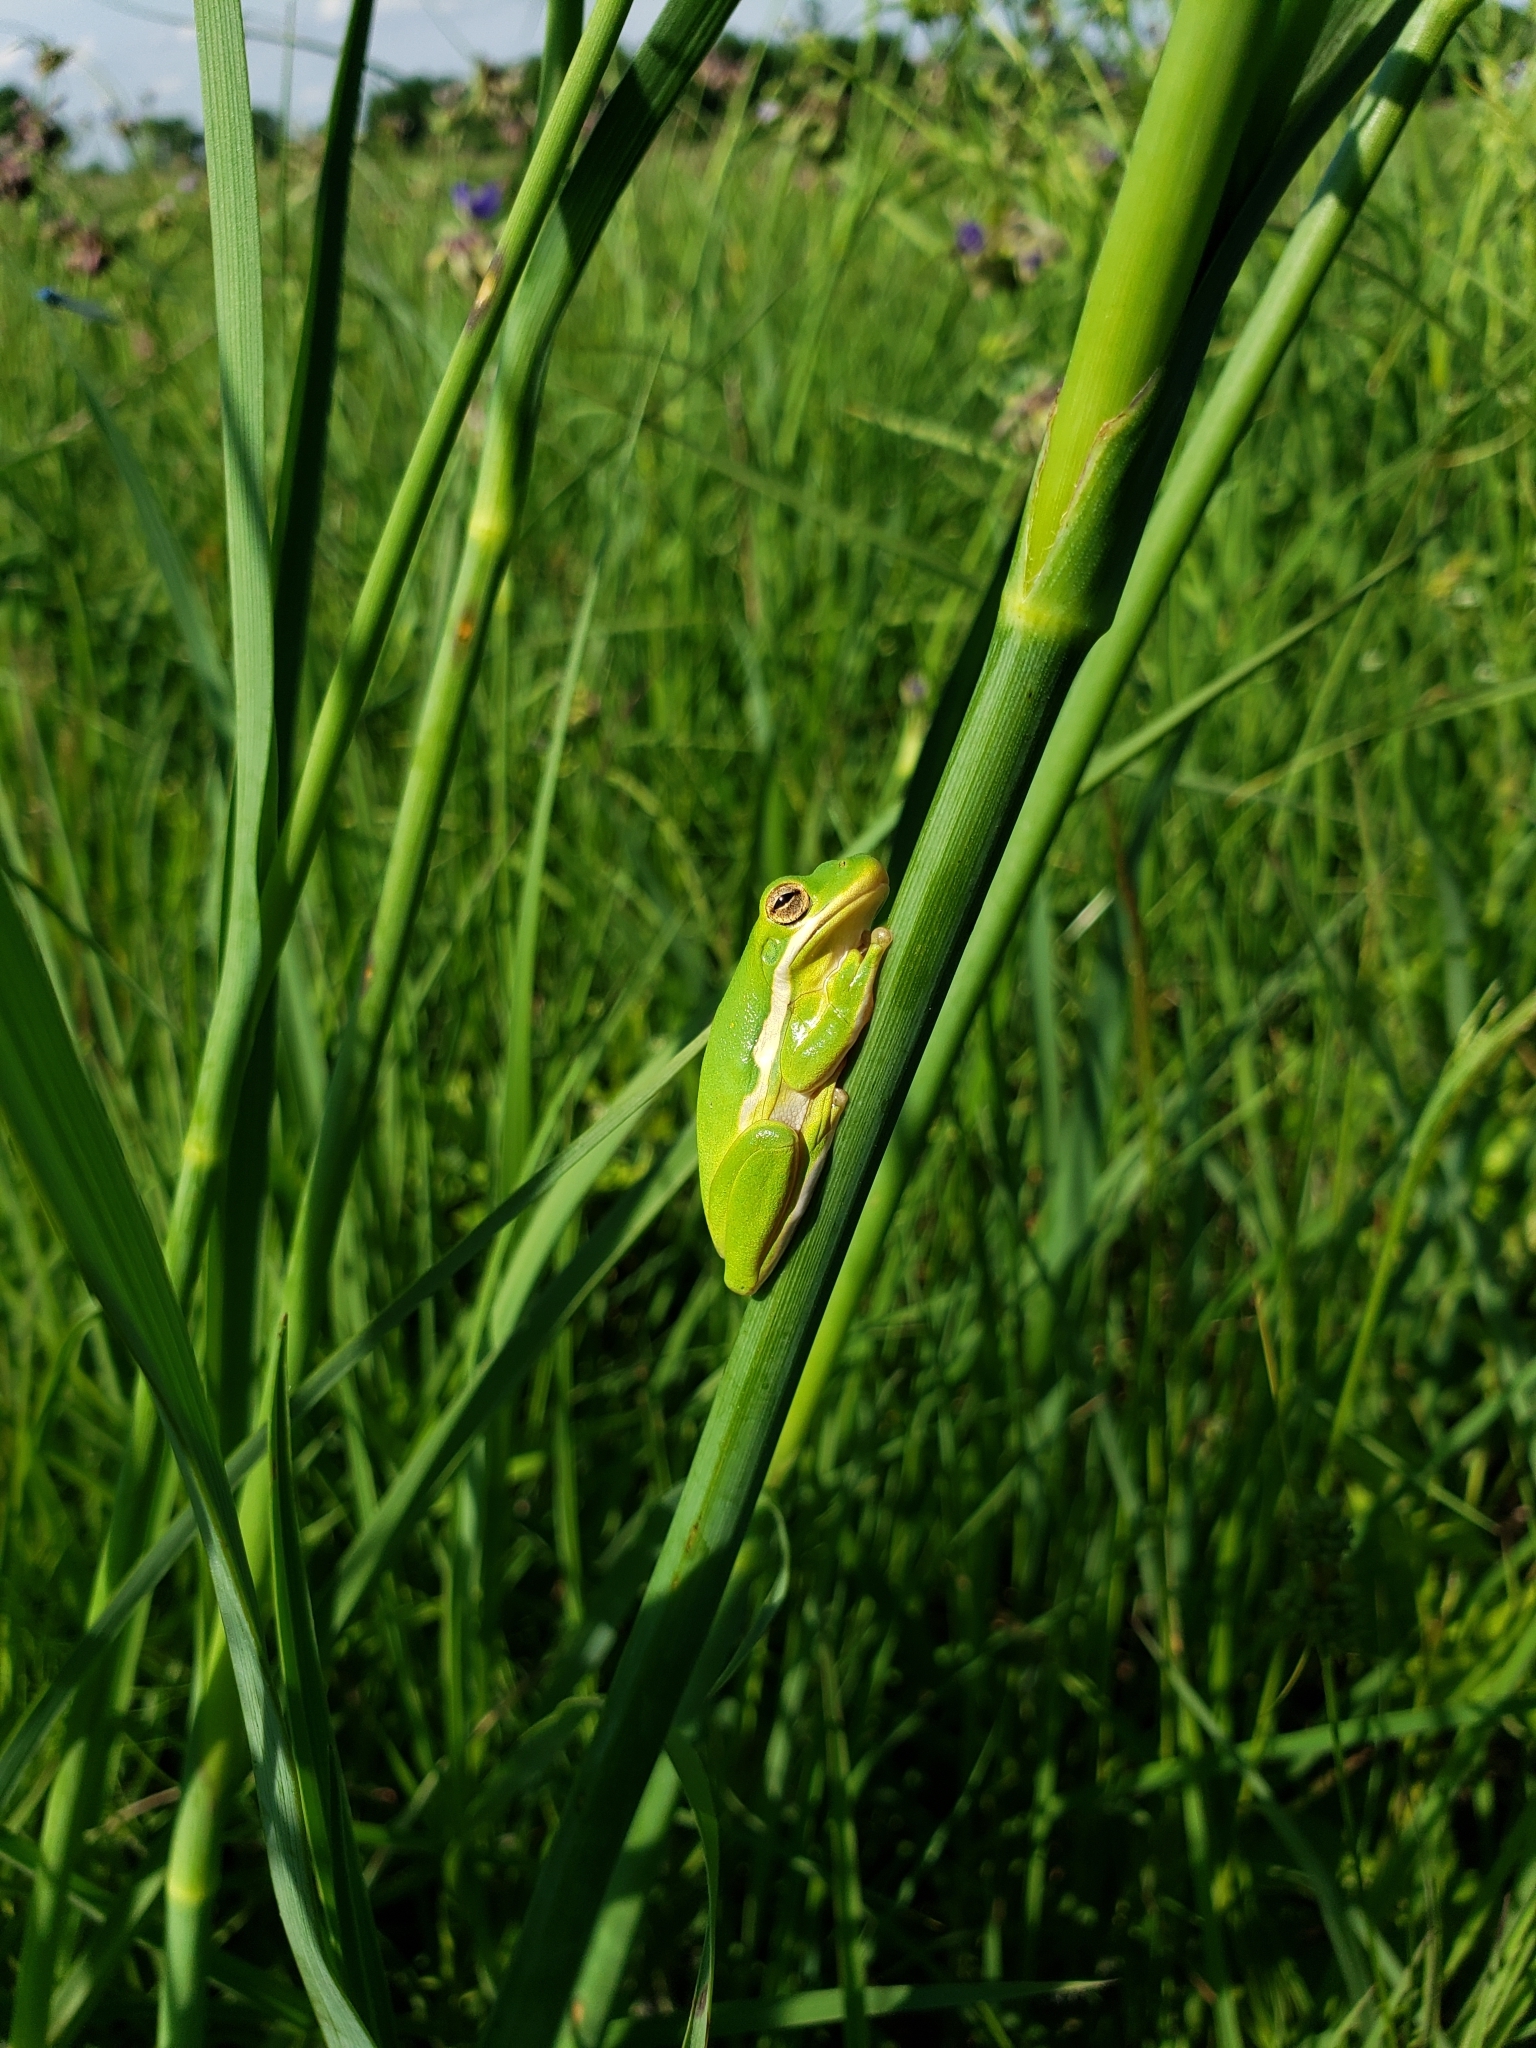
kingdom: Animalia
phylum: Chordata
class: Amphibia
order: Anura
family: Hylidae
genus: Dryophytes
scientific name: Dryophytes cinereus
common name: Green treefrog
